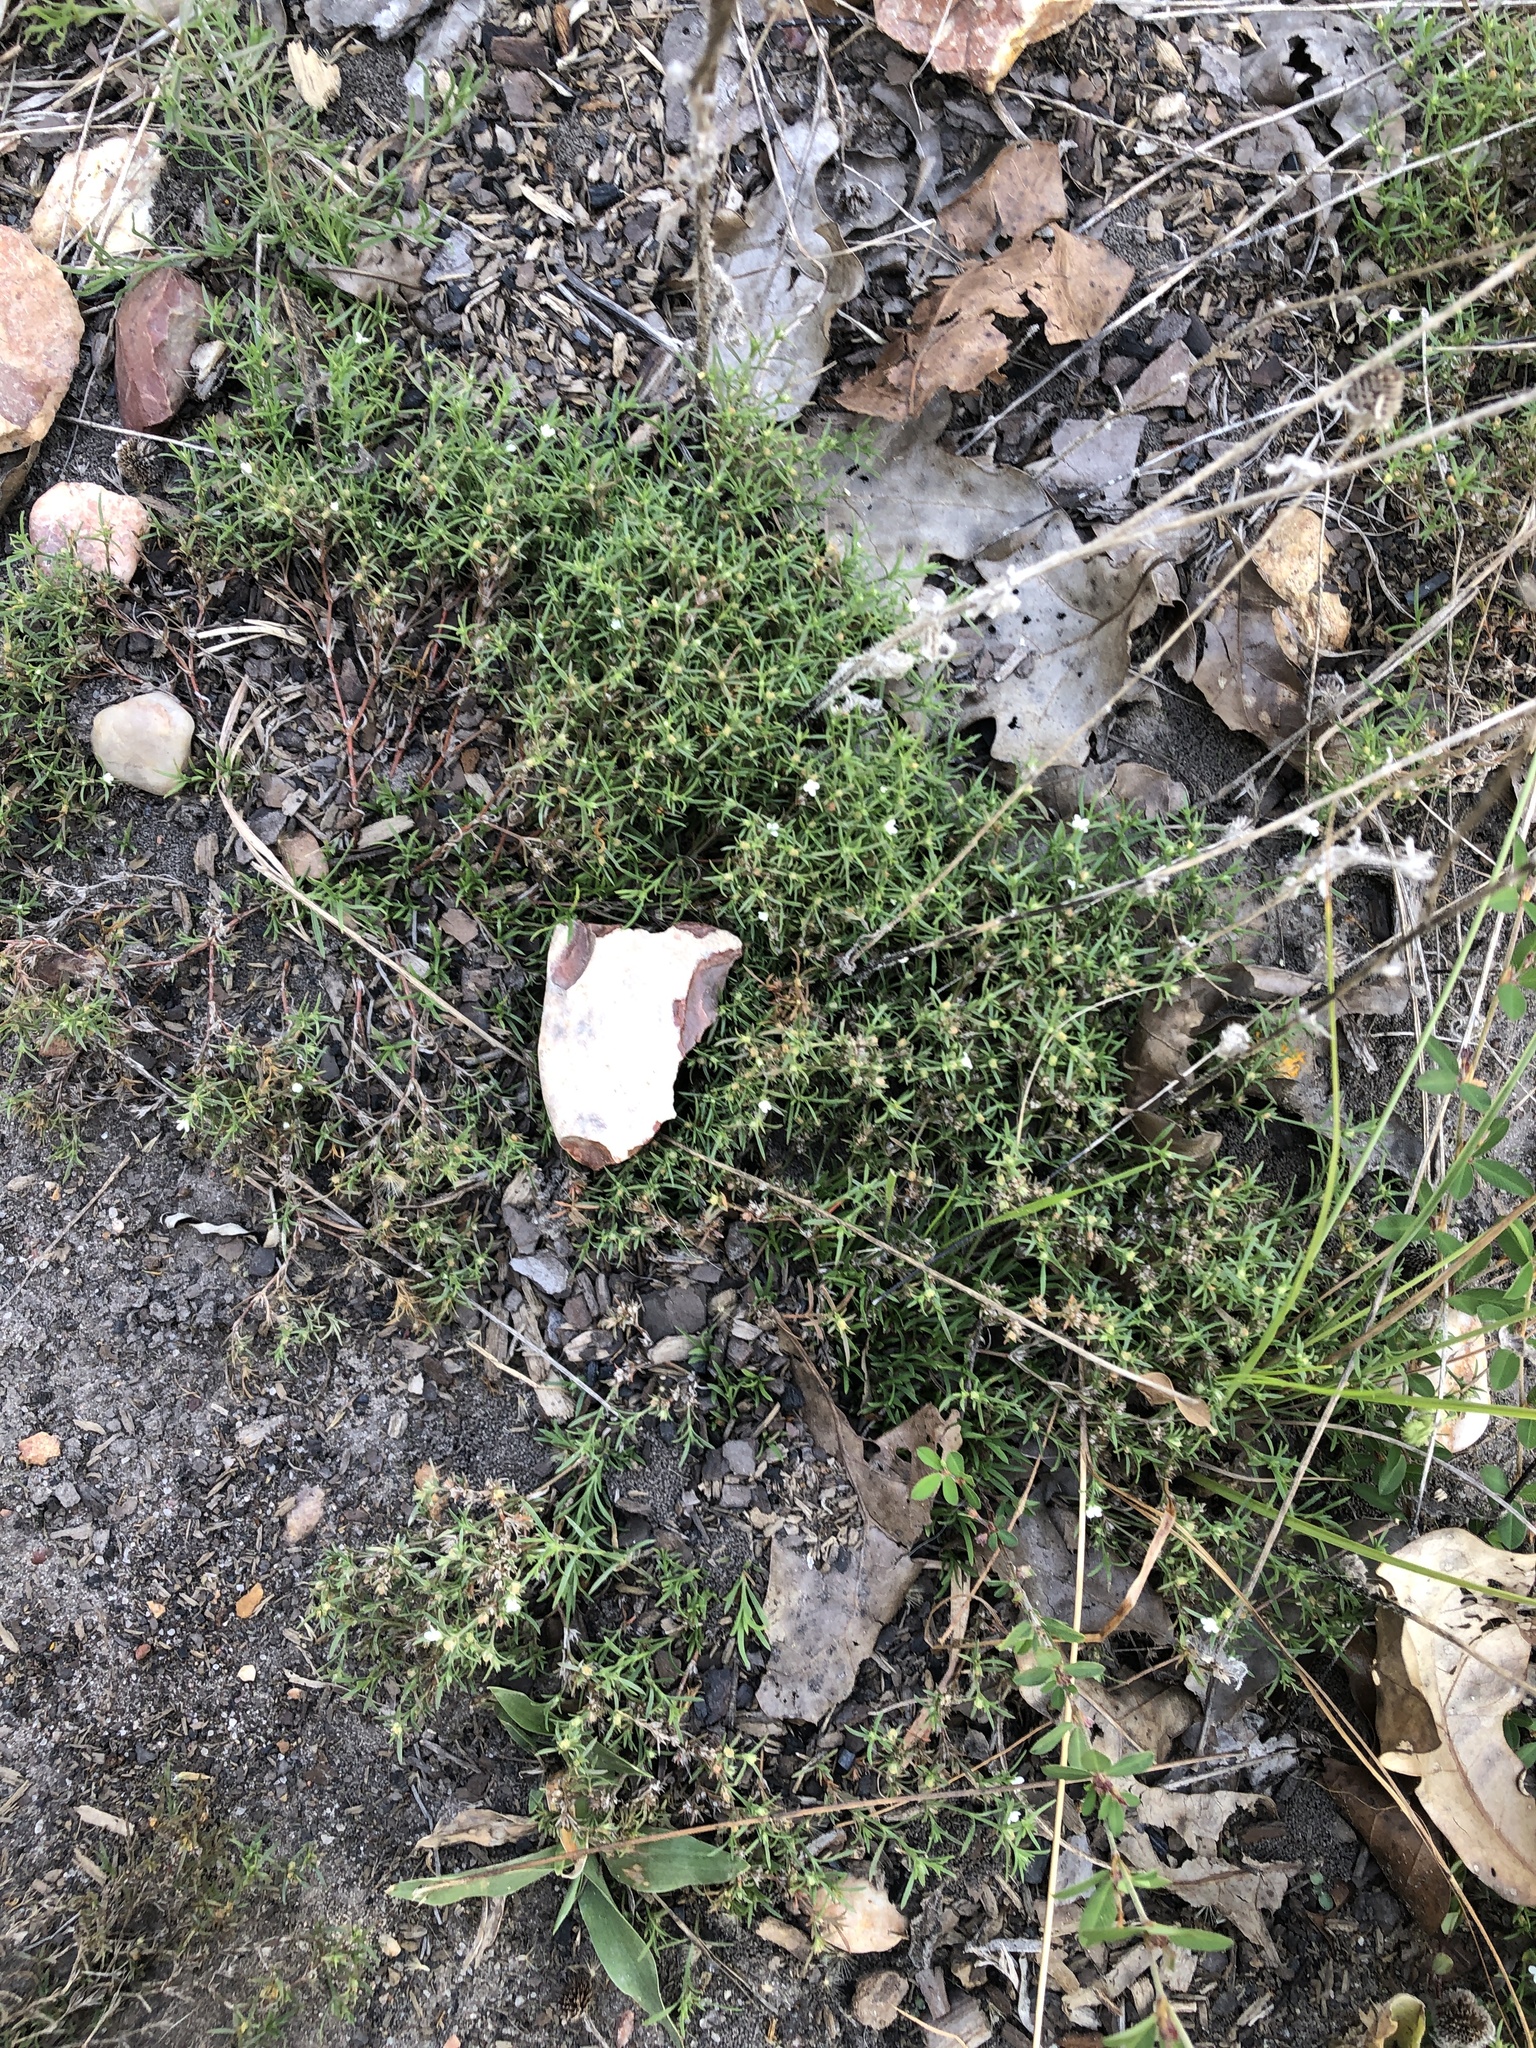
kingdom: Plantae
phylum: Tracheophyta
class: Magnoliopsida
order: Lamiales
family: Tetrachondraceae
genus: Polypremum
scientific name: Polypremum procumbens
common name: Juniper-leaf
